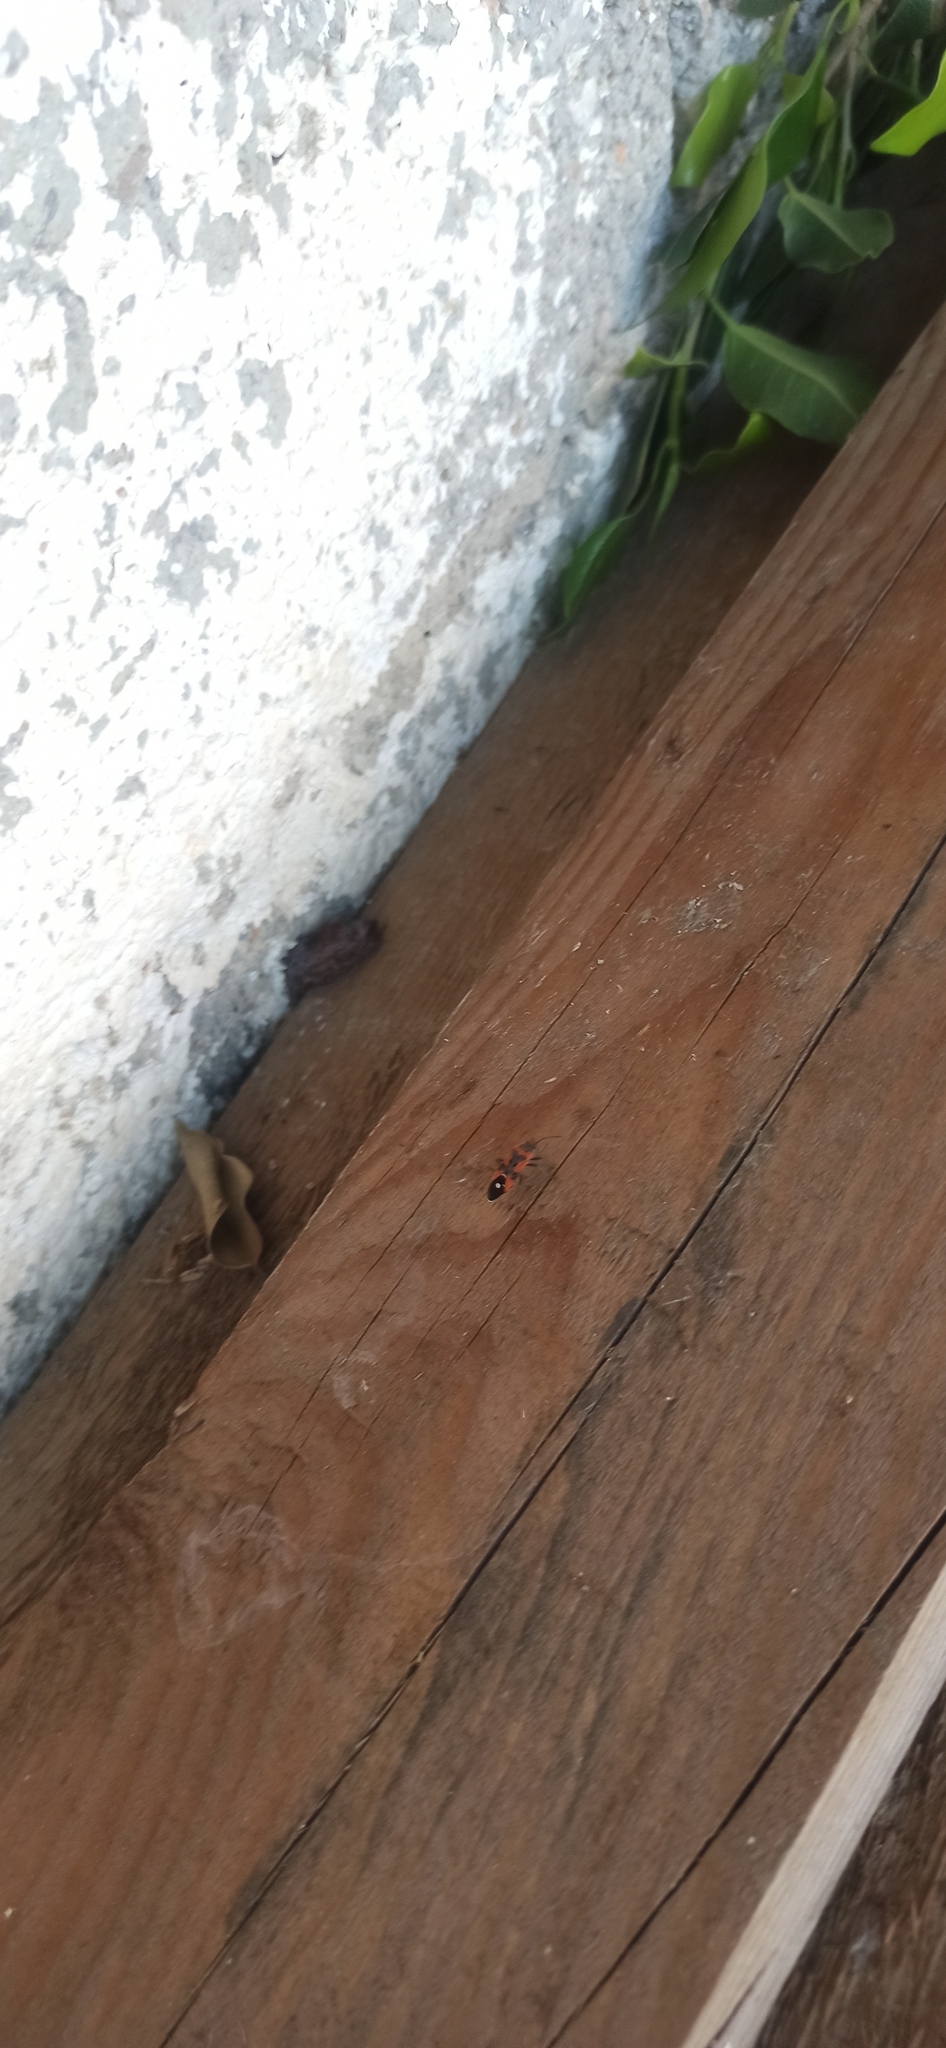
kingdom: Animalia
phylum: Arthropoda
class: Insecta
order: Hemiptera
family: Lygaeidae
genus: Lygaeus
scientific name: Lygaeus
